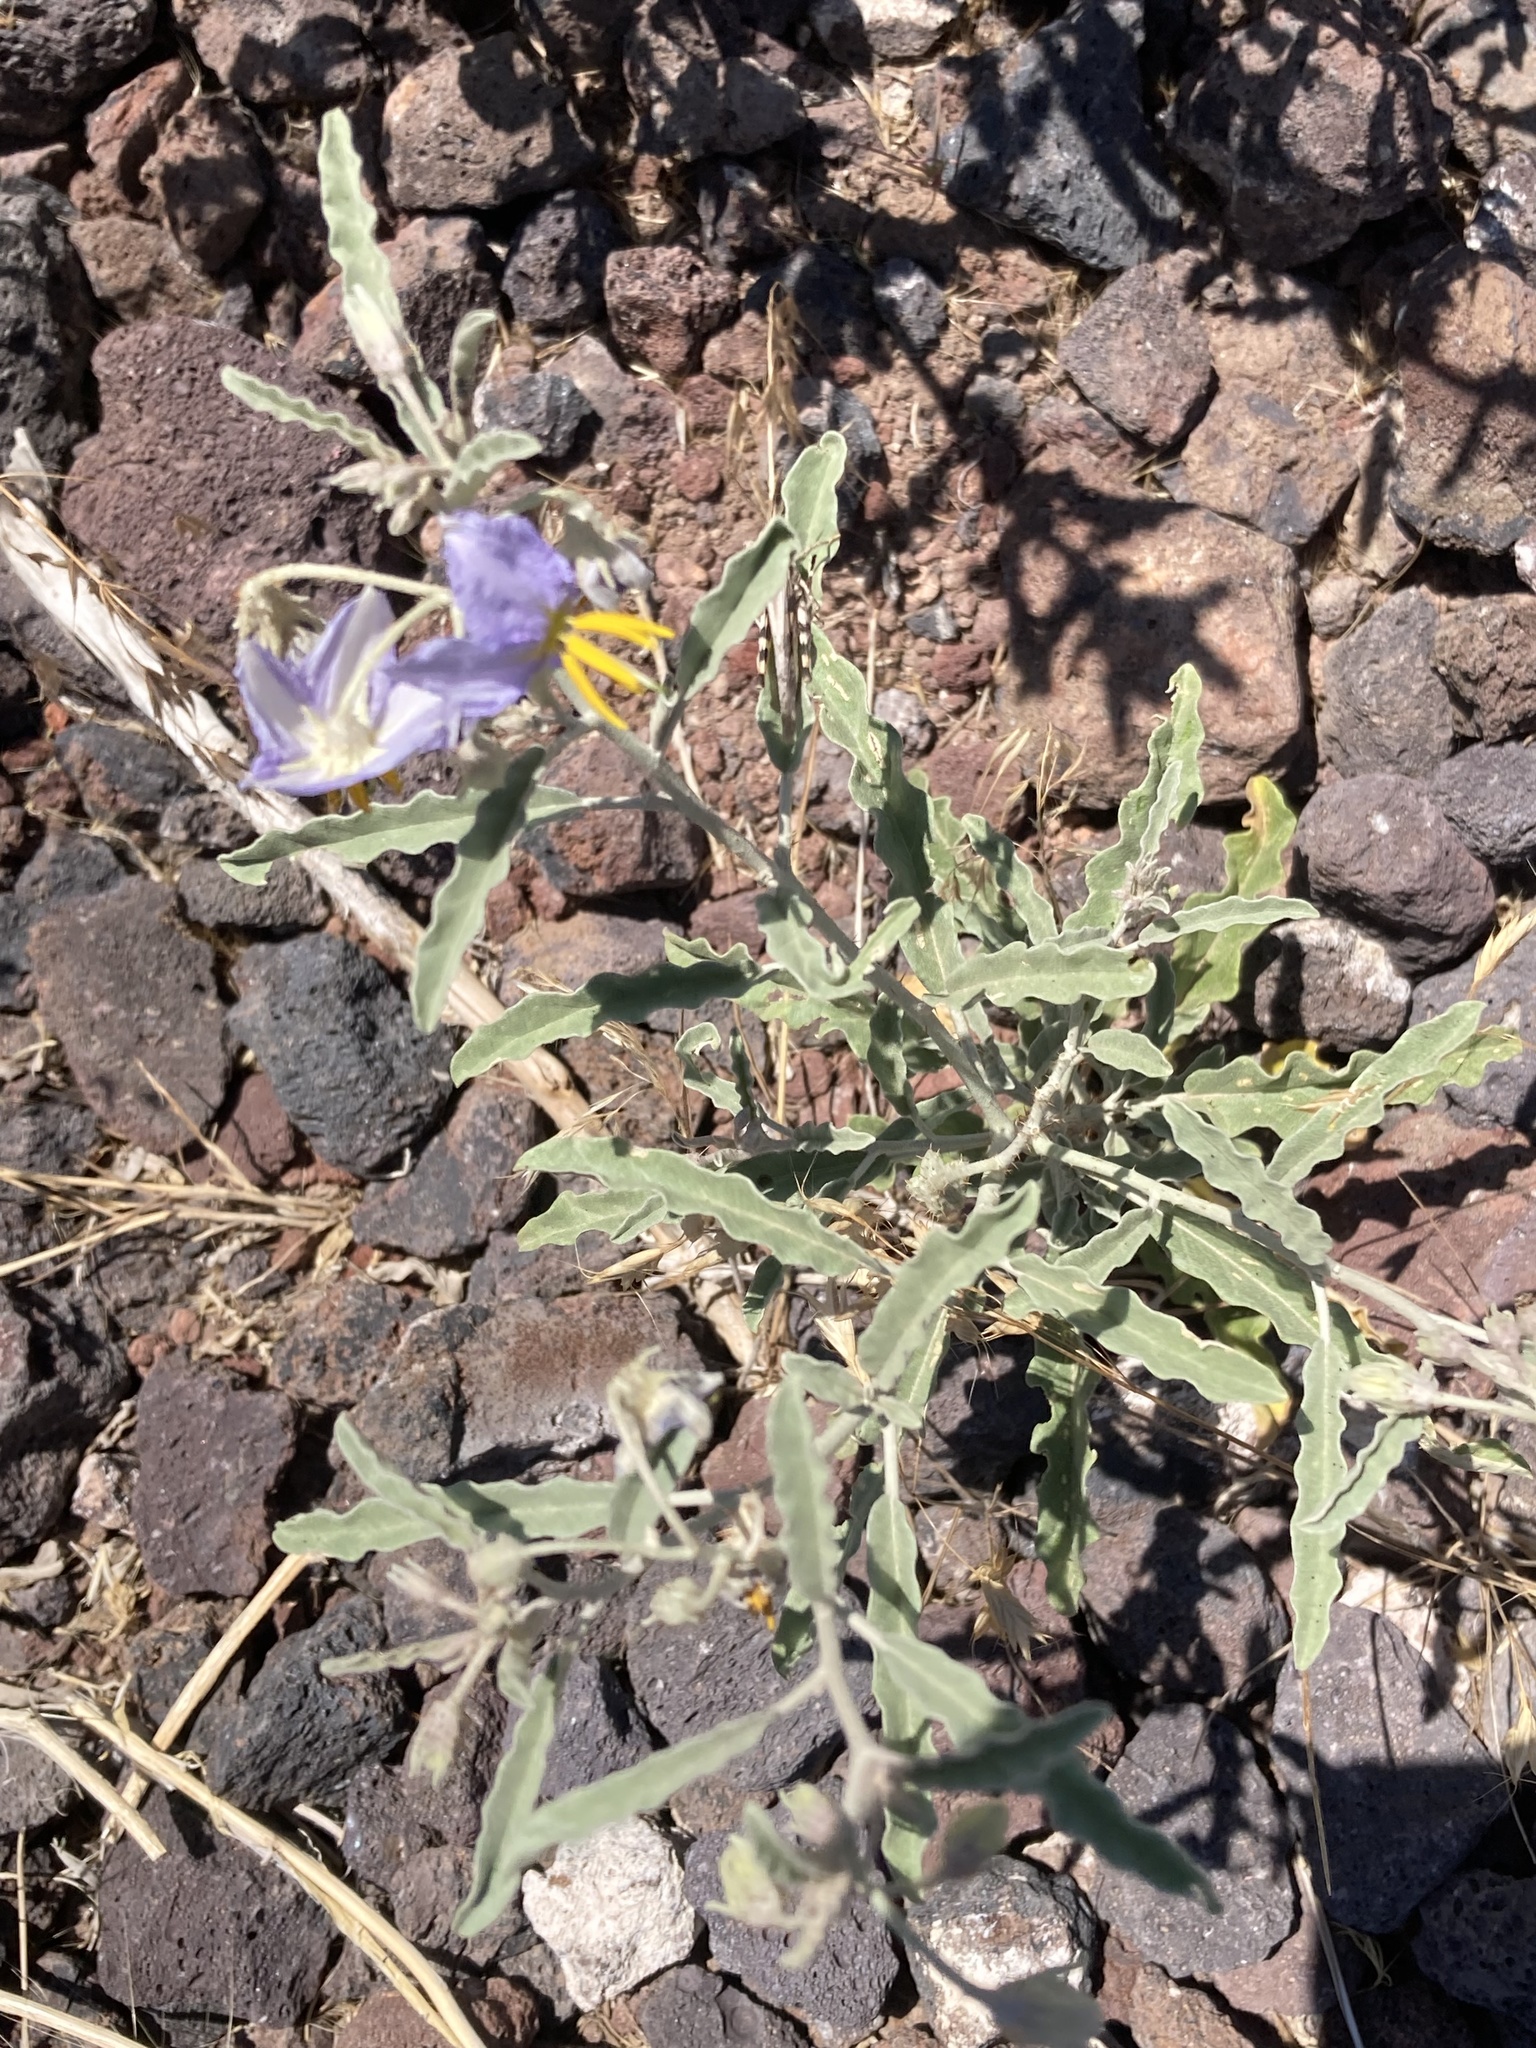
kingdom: Plantae
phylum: Tracheophyta
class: Magnoliopsida
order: Solanales
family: Solanaceae
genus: Solanum
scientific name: Solanum elaeagnifolium
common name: Silverleaf nightshade
